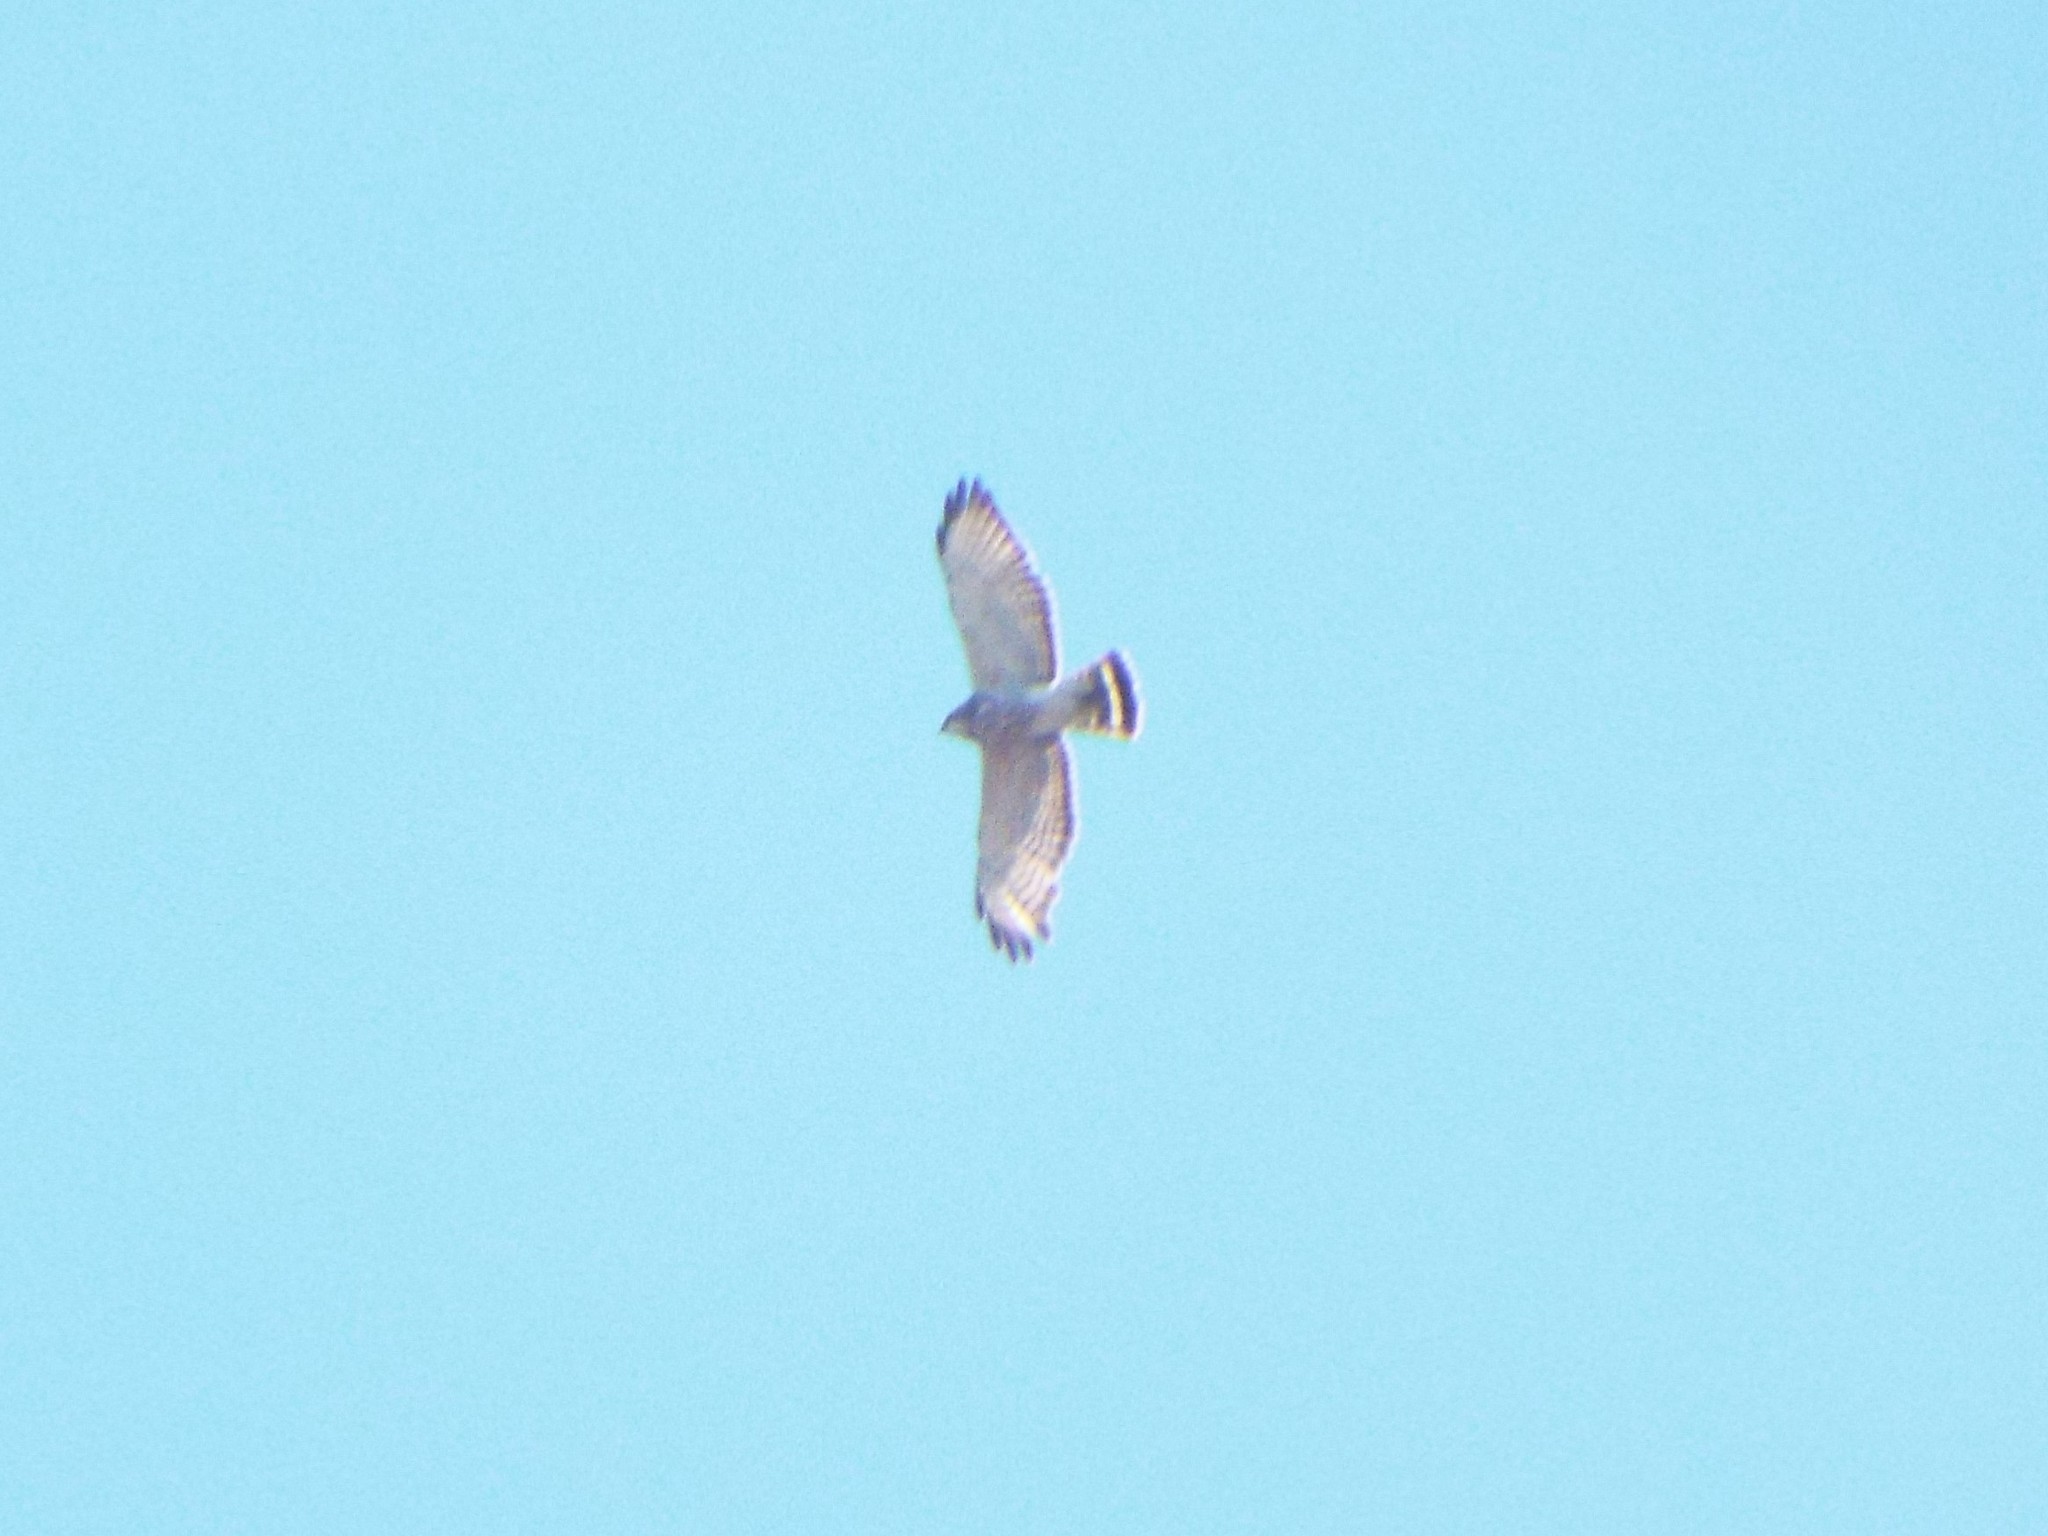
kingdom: Animalia
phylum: Chordata
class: Aves
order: Accipitriformes
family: Accipitridae
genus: Buteo
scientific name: Buteo platypterus
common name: Broad-winged hawk
